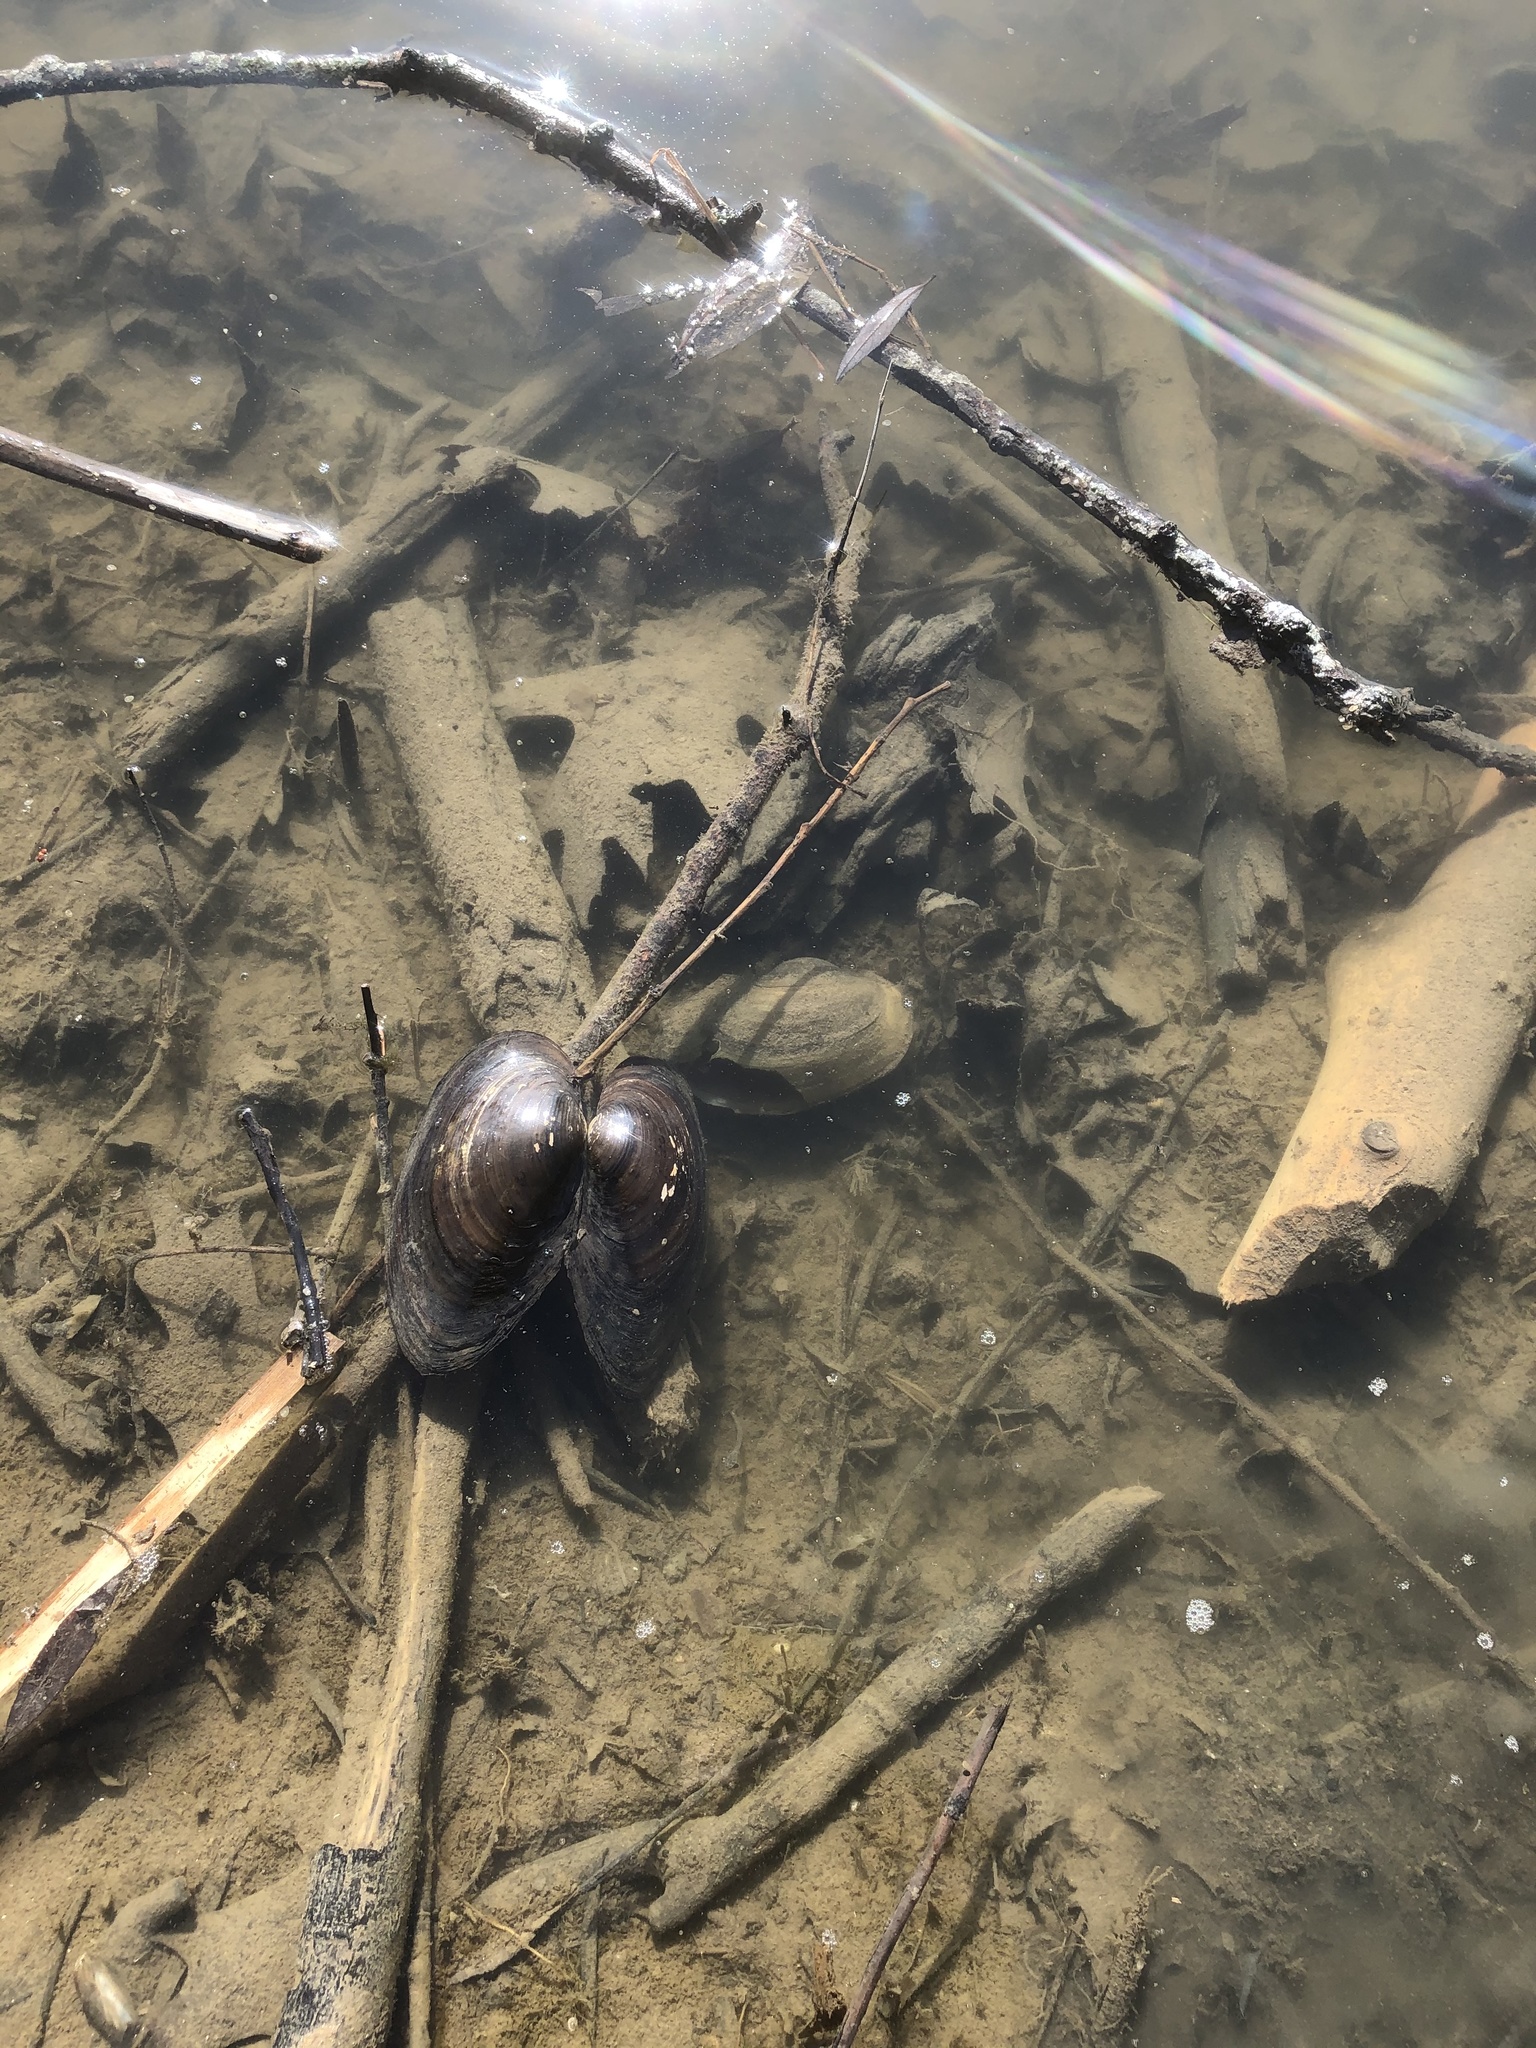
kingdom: Animalia
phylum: Mollusca
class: Bivalvia
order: Unionida
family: Unionidae
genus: Pyganodon
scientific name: Pyganodon grandis
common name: Giant floater
